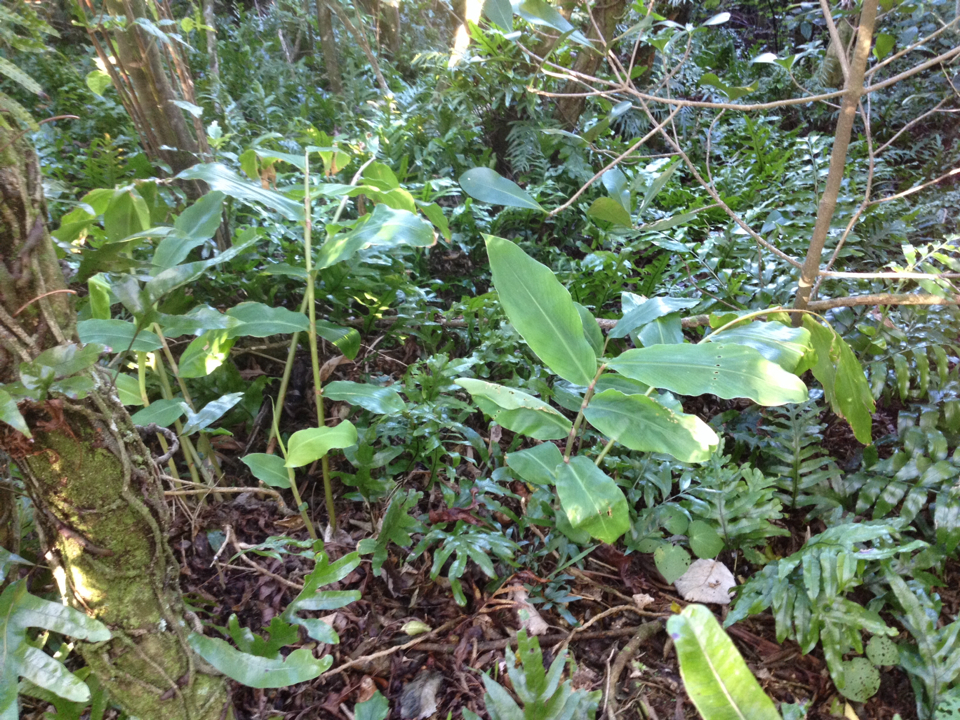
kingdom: Plantae
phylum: Tracheophyta
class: Liliopsida
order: Zingiberales
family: Zingiberaceae
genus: Hedychium
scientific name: Hedychium gardnerianum
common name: Himalayan ginger
